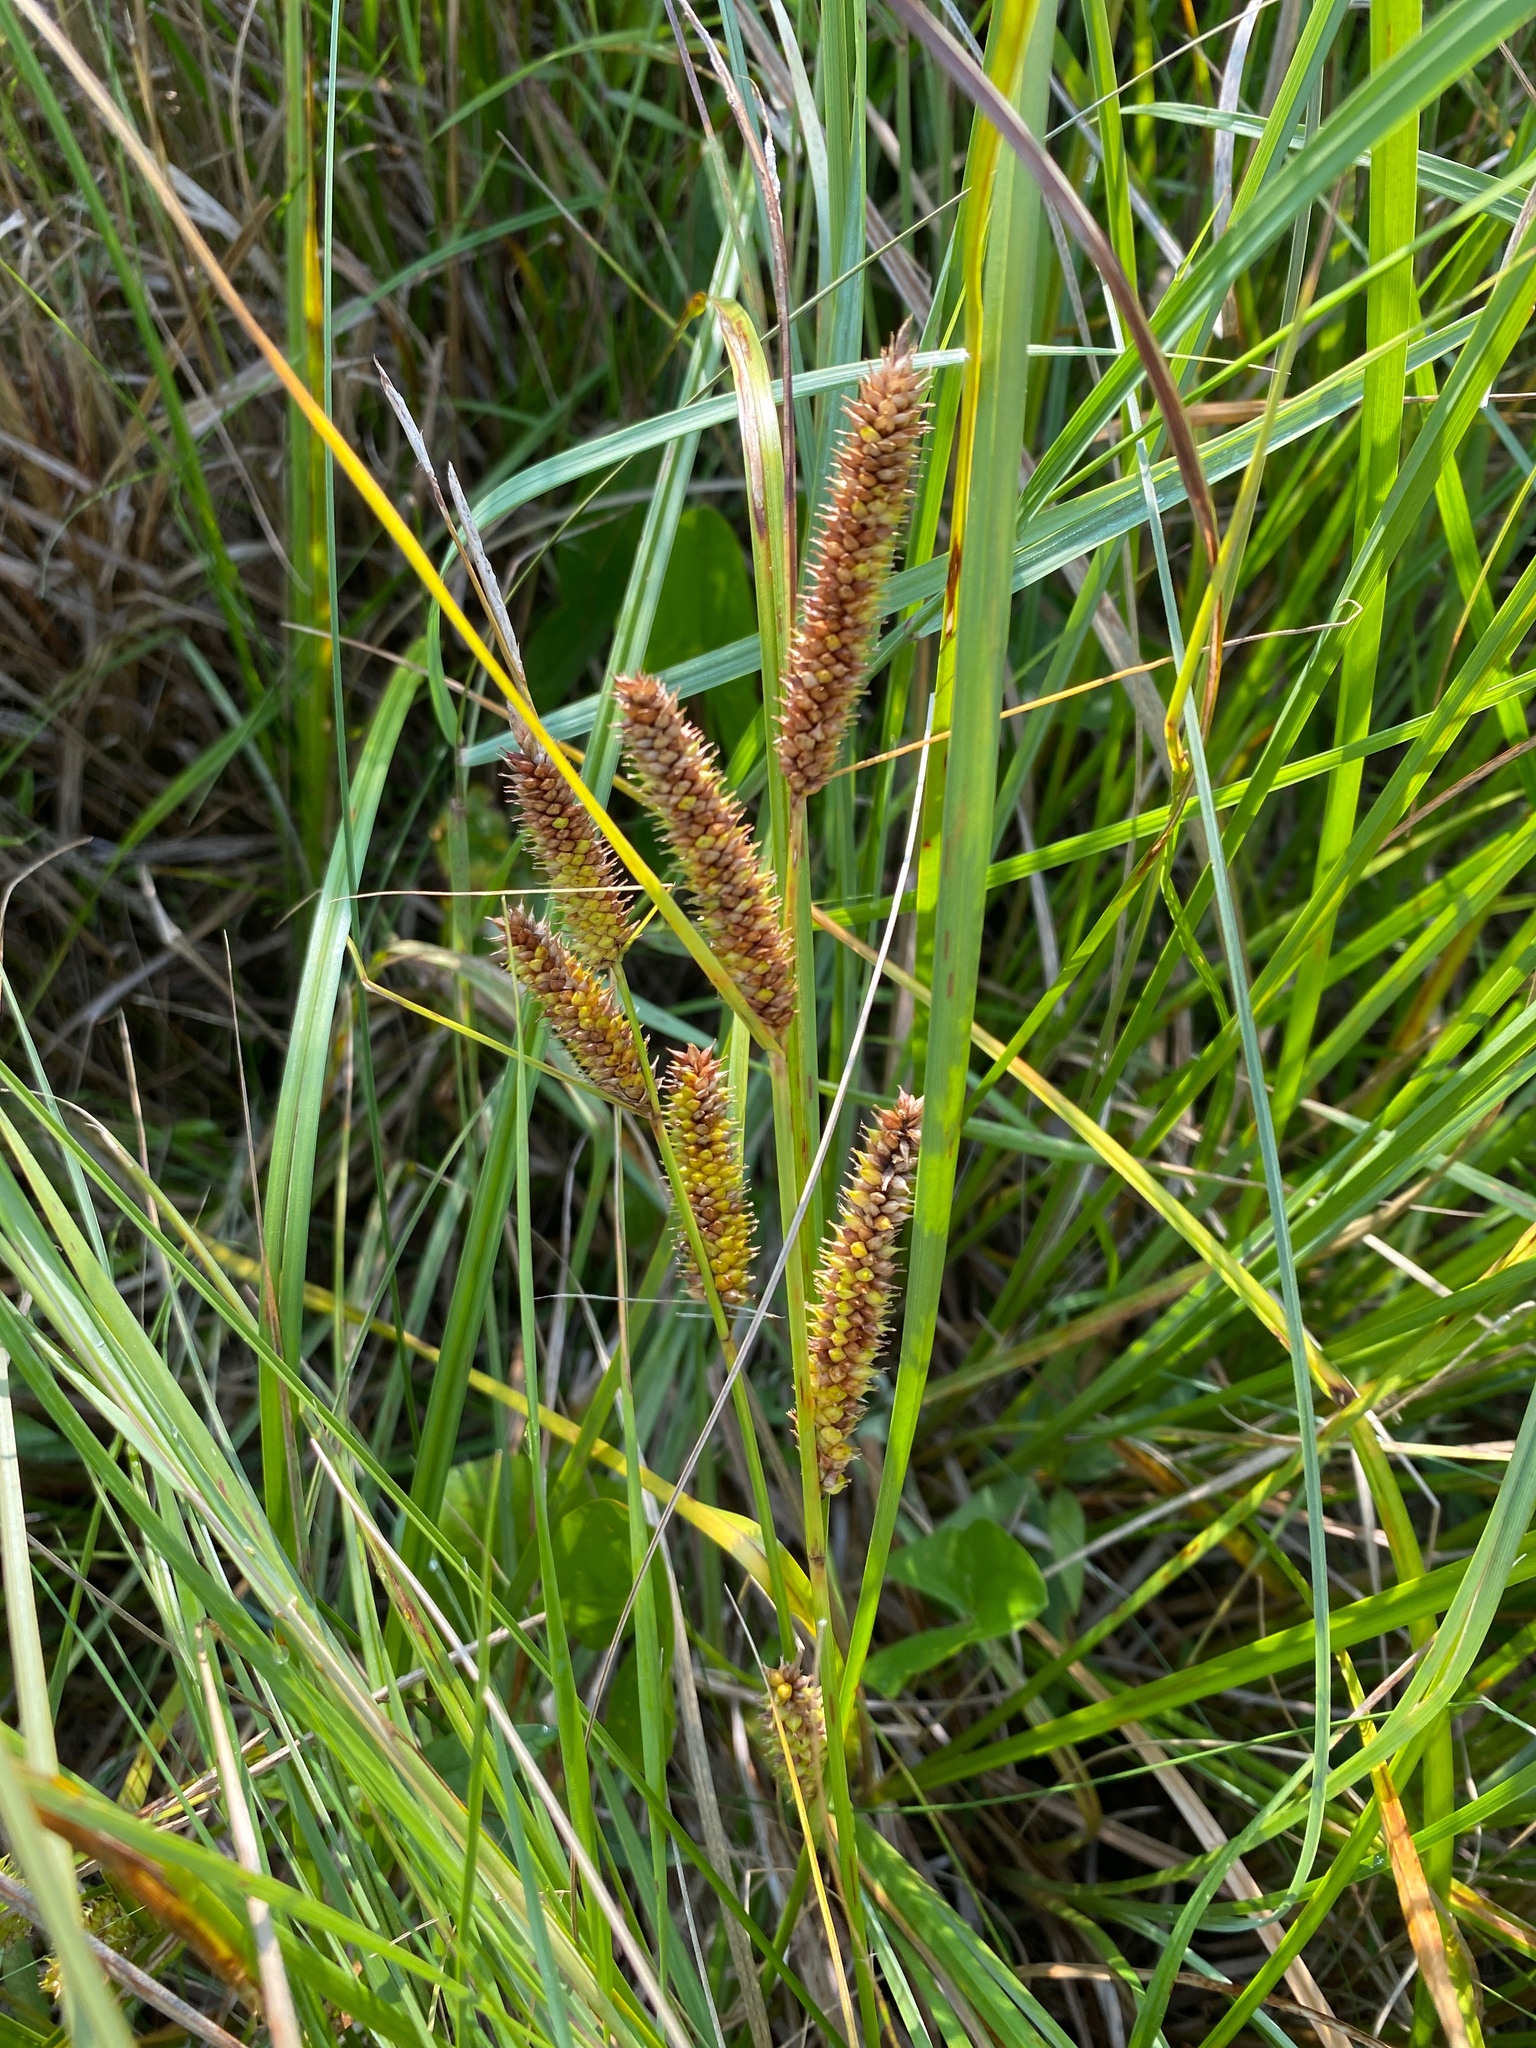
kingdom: Plantae
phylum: Tracheophyta
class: Liliopsida
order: Poales
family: Cyperaceae
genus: Carex
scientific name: Carex utriculata
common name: Beaked sedge
